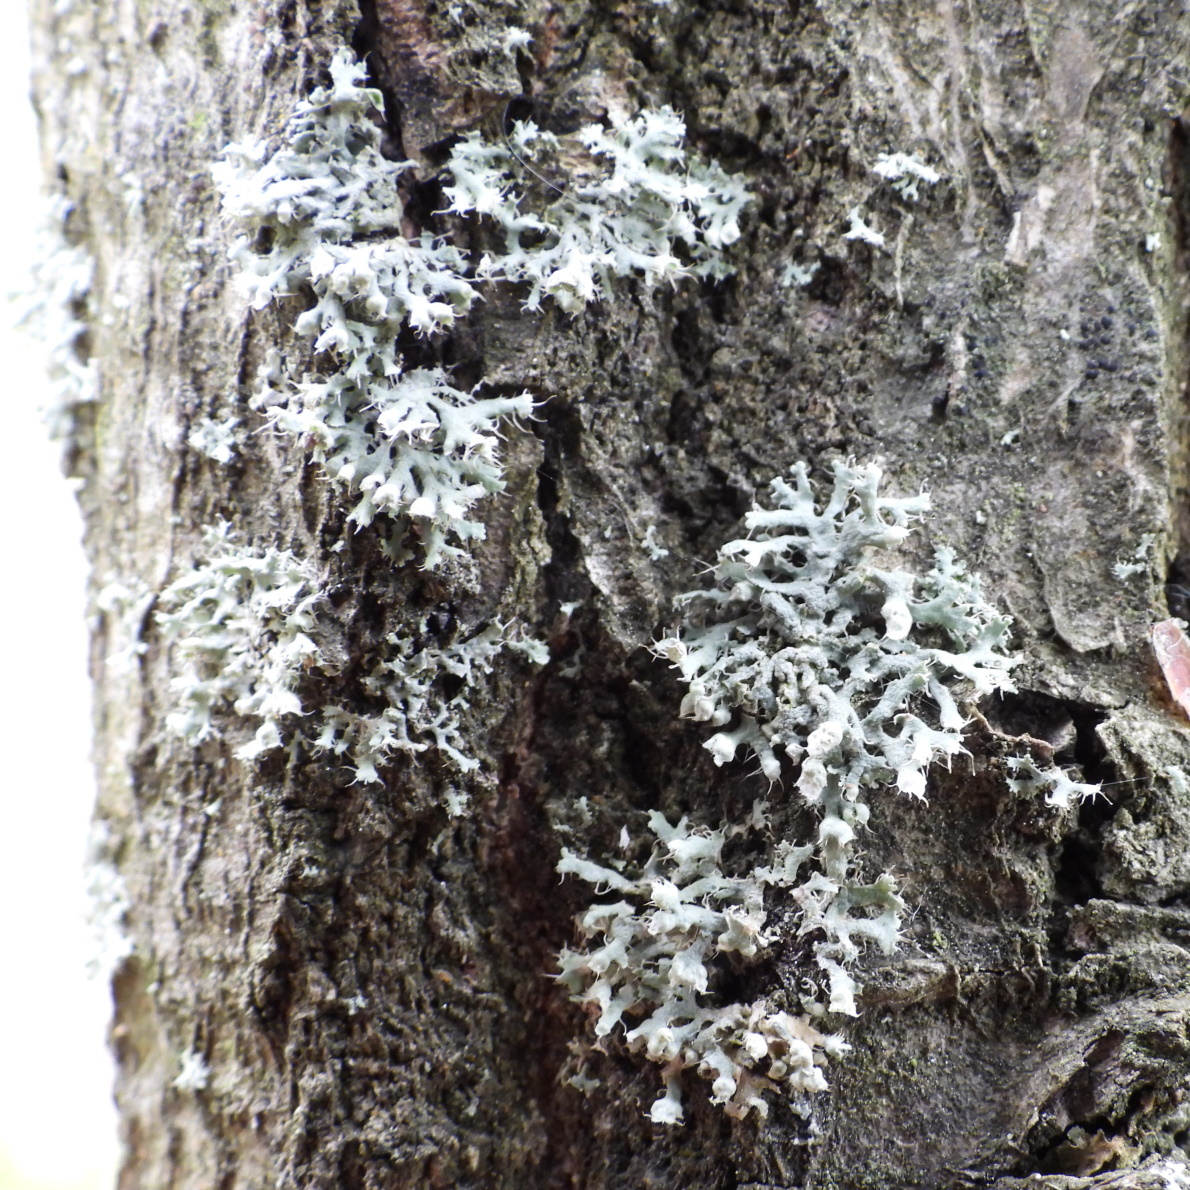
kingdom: Fungi
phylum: Ascomycota
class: Lecanoromycetes
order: Caliciales
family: Physciaceae
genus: Physcia
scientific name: Physcia adscendens
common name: Hooded rosette lichen
